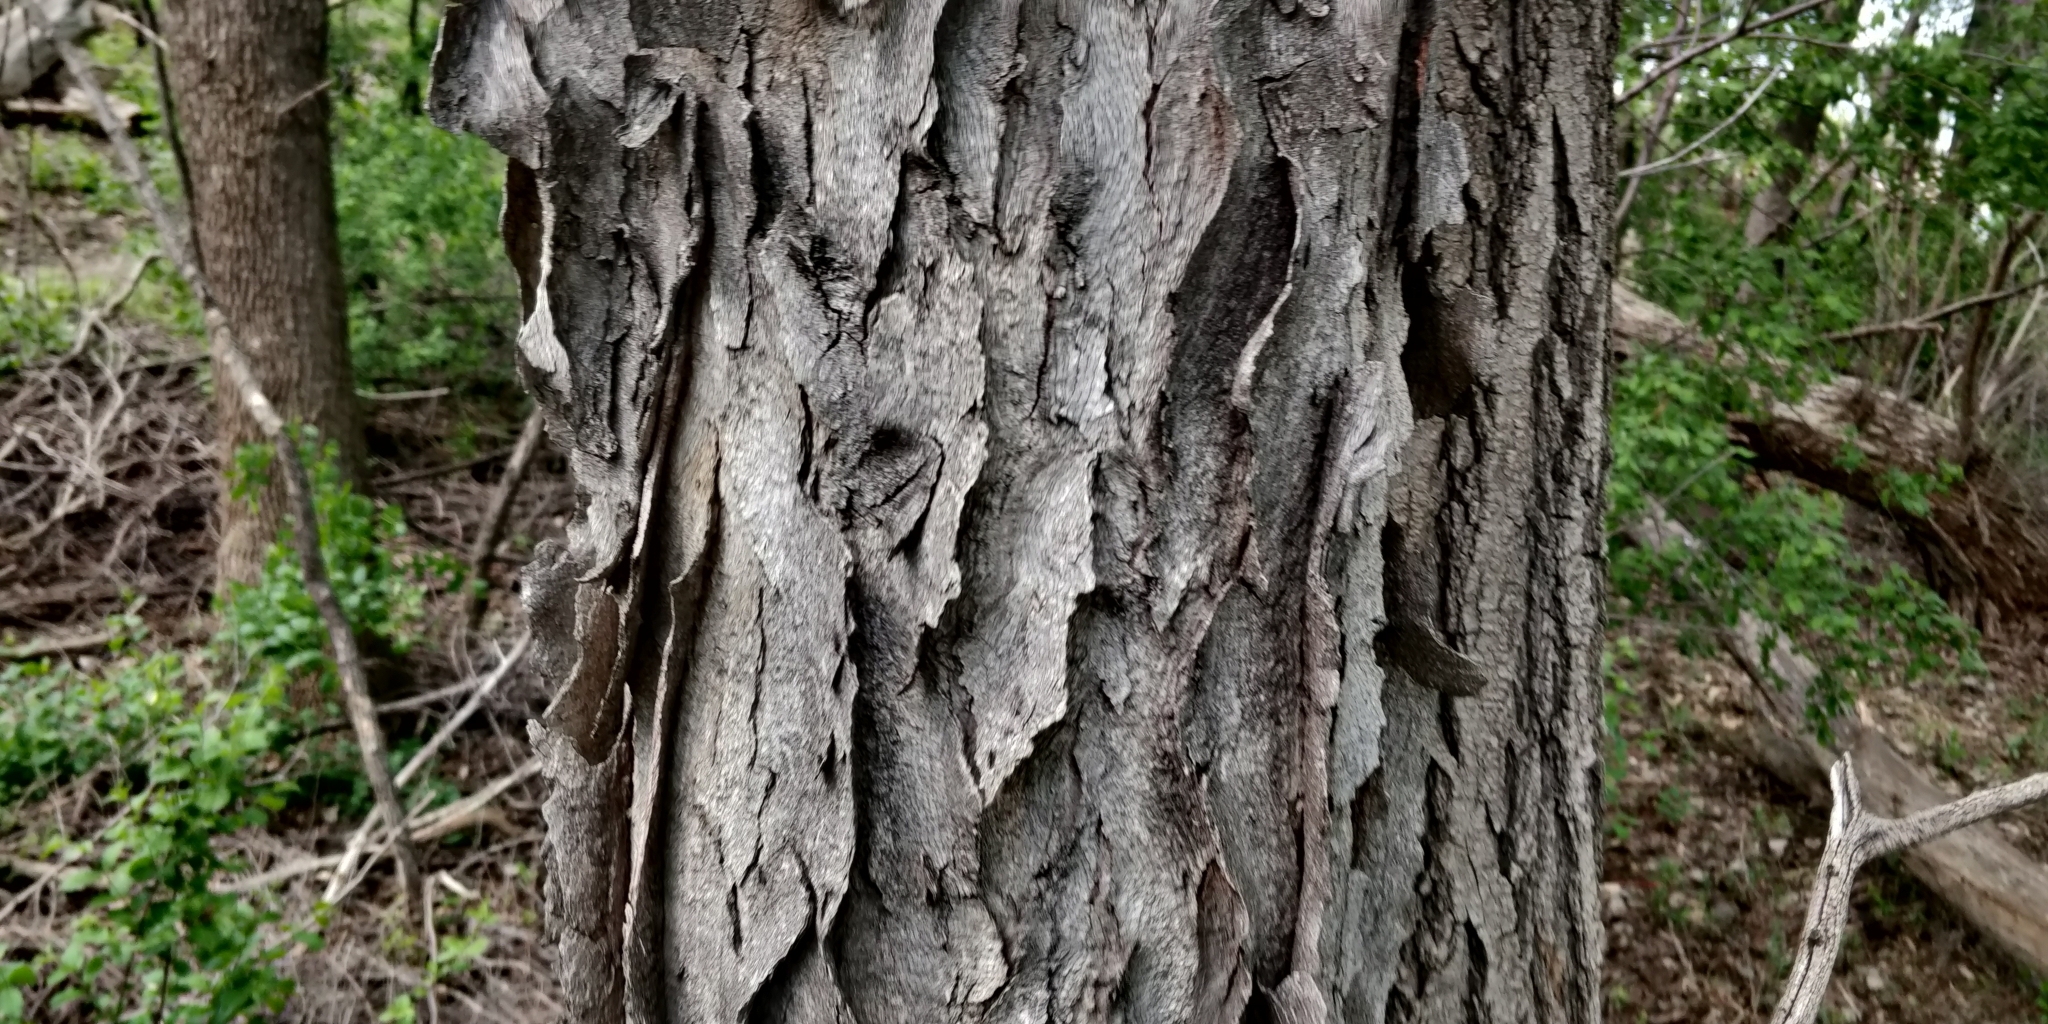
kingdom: Plantae
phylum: Tracheophyta
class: Magnoliopsida
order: Fabales
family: Fabaceae
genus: Gymnocladus
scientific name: Gymnocladus dioicus
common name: Kentucky coffee-tree
